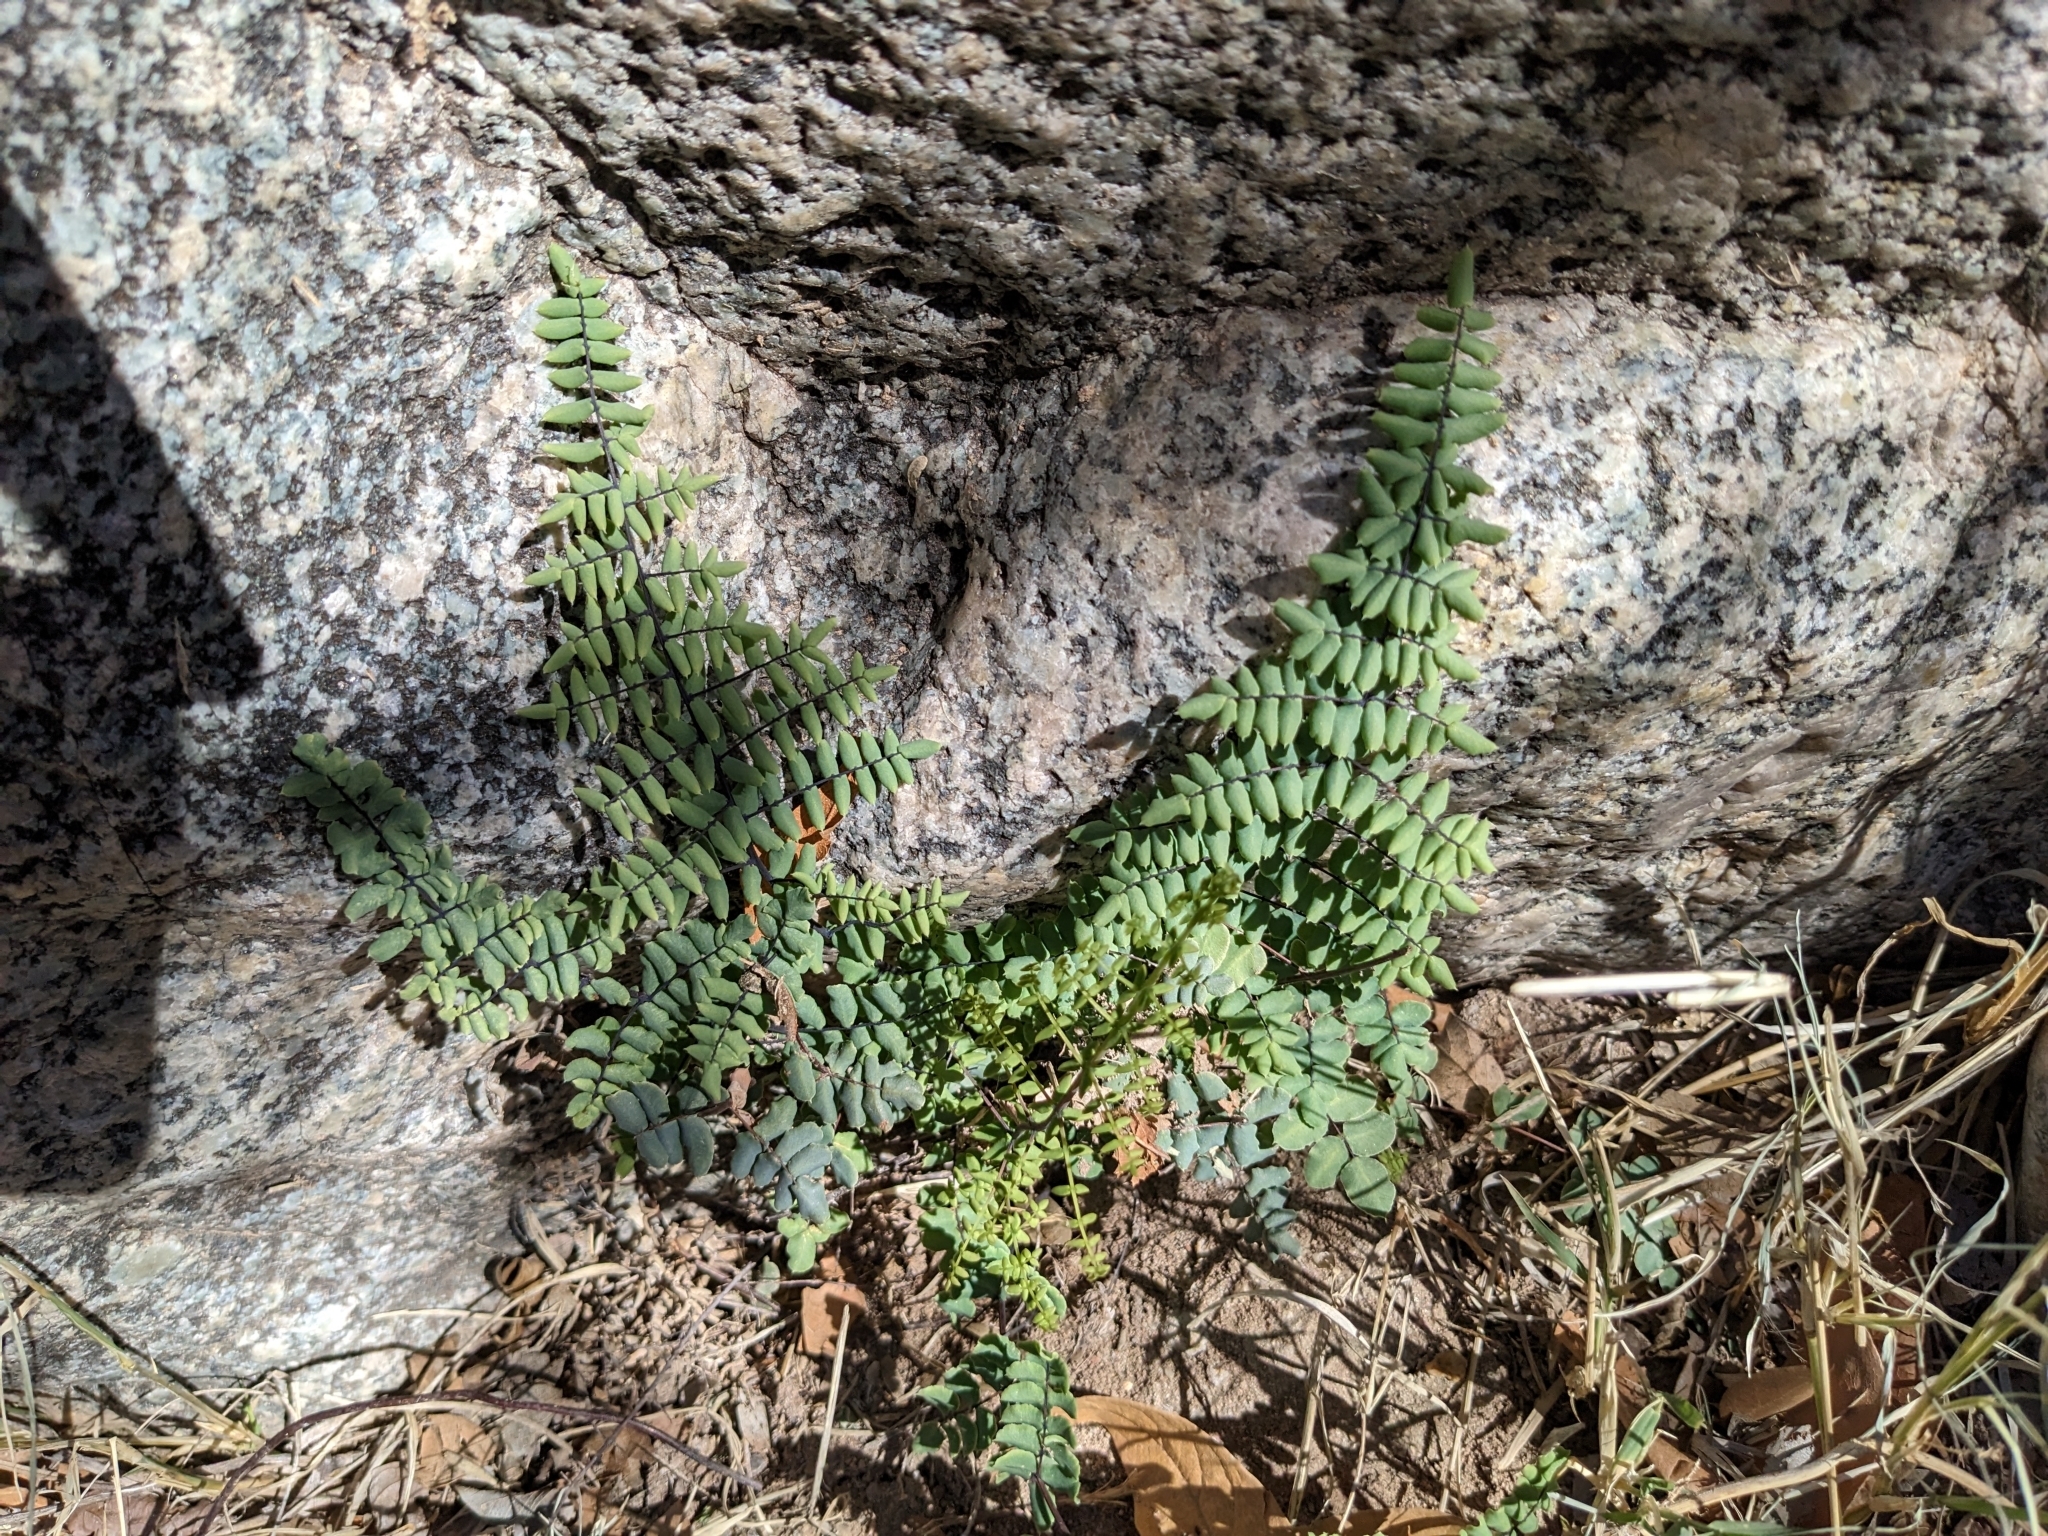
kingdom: Plantae
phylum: Tracheophyta
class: Polypodiopsida
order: Polypodiales
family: Pteridaceae
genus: Pellaea
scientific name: Pellaea truncata
